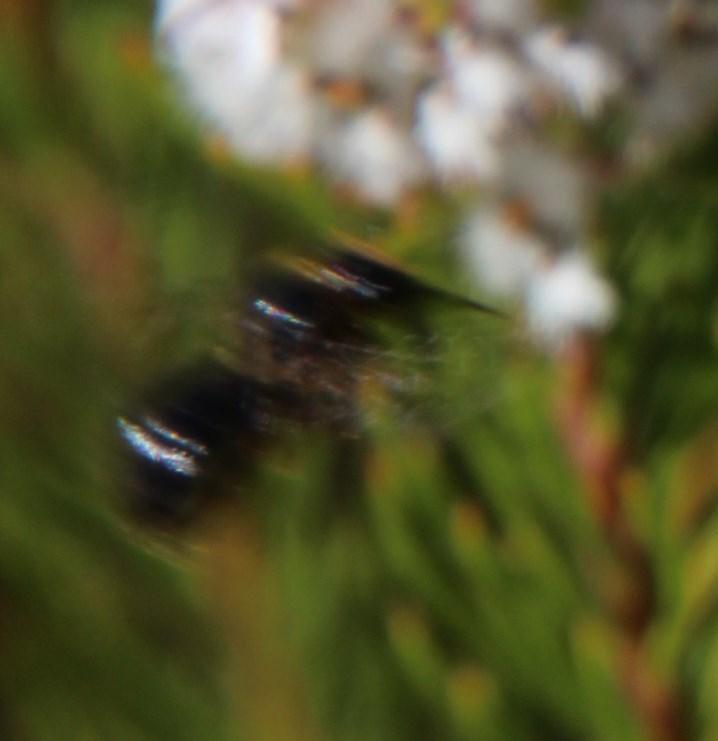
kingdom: Plantae
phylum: Tracheophyta
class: Magnoliopsida
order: Proteales
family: Proteaceae
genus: Spatalla
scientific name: Spatalla parilis
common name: Spike spoon
